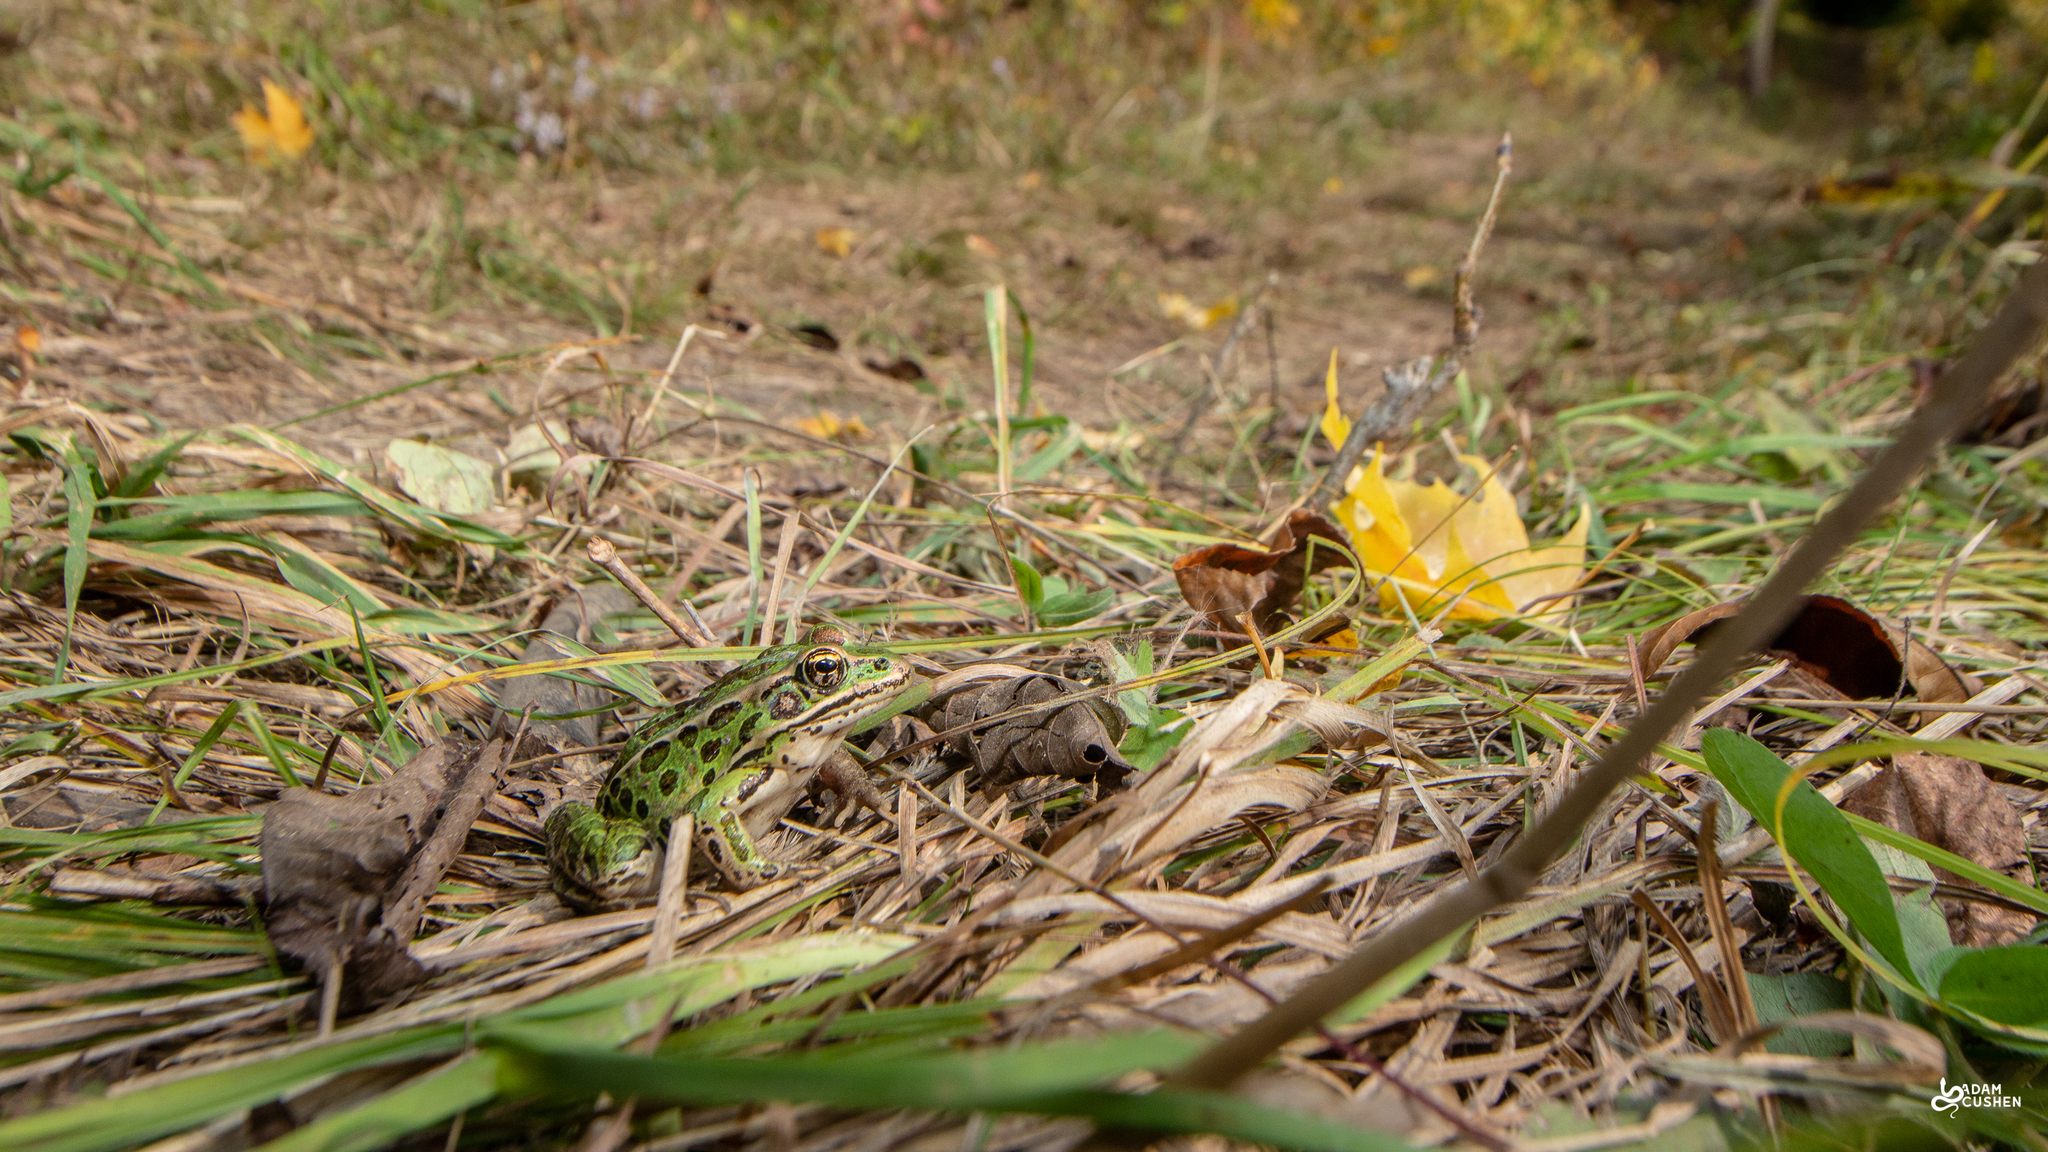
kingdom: Animalia
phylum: Chordata
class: Amphibia
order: Anura
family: Ranidae
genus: Lithobates
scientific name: Lithobates pipiens
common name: Northern leopard frog
